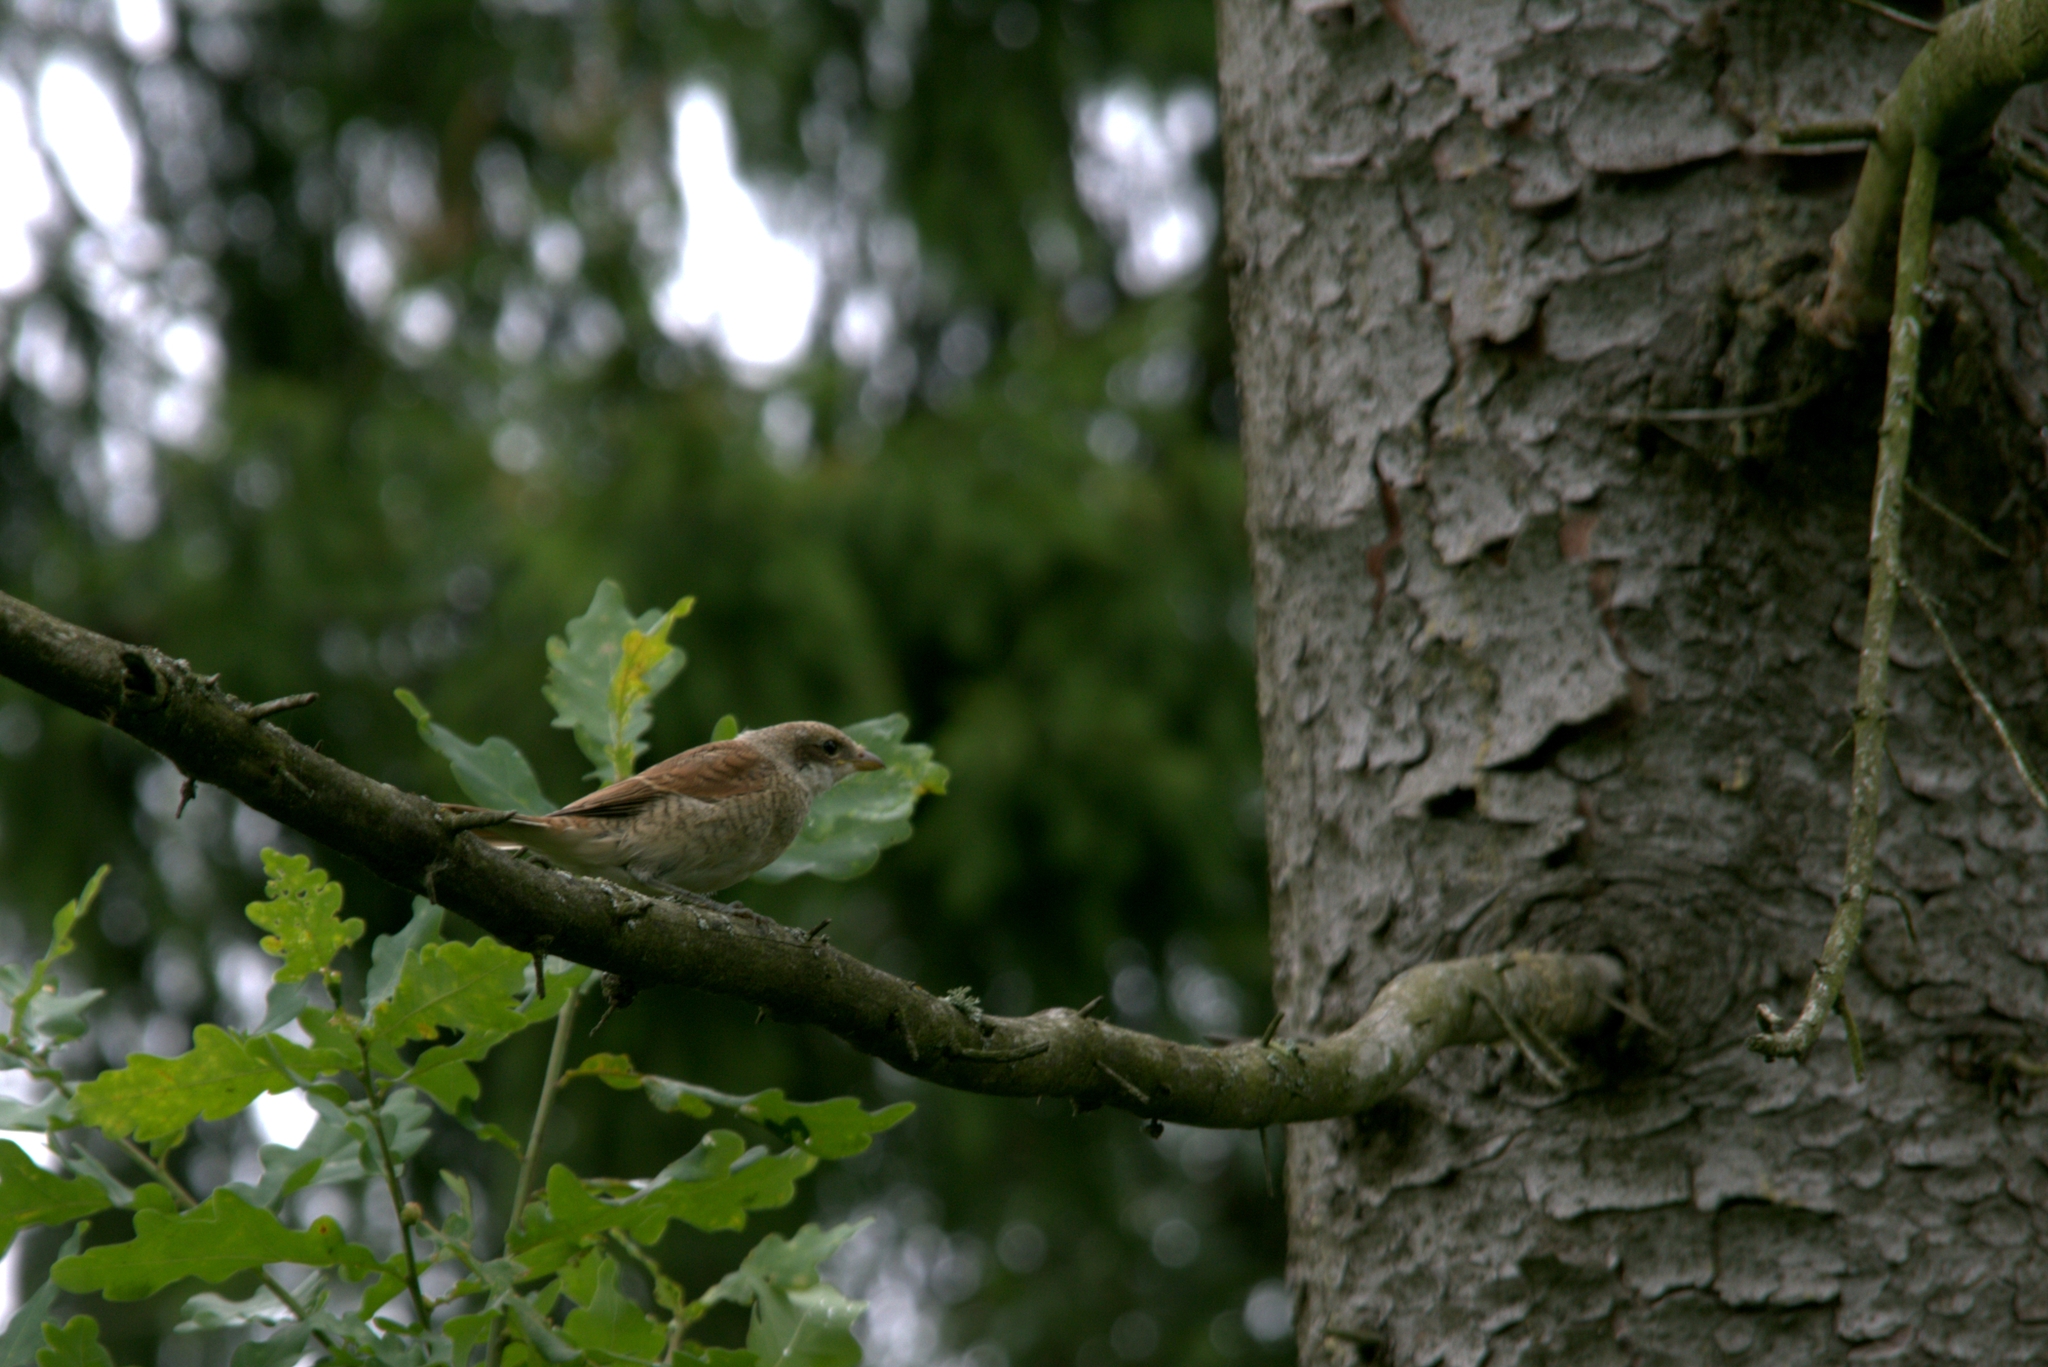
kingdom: Animalia
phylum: Chordata
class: Aves
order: Passeriformes
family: Laniidae
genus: Lanius
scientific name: Lanius collurio
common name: Red-backed shrike
